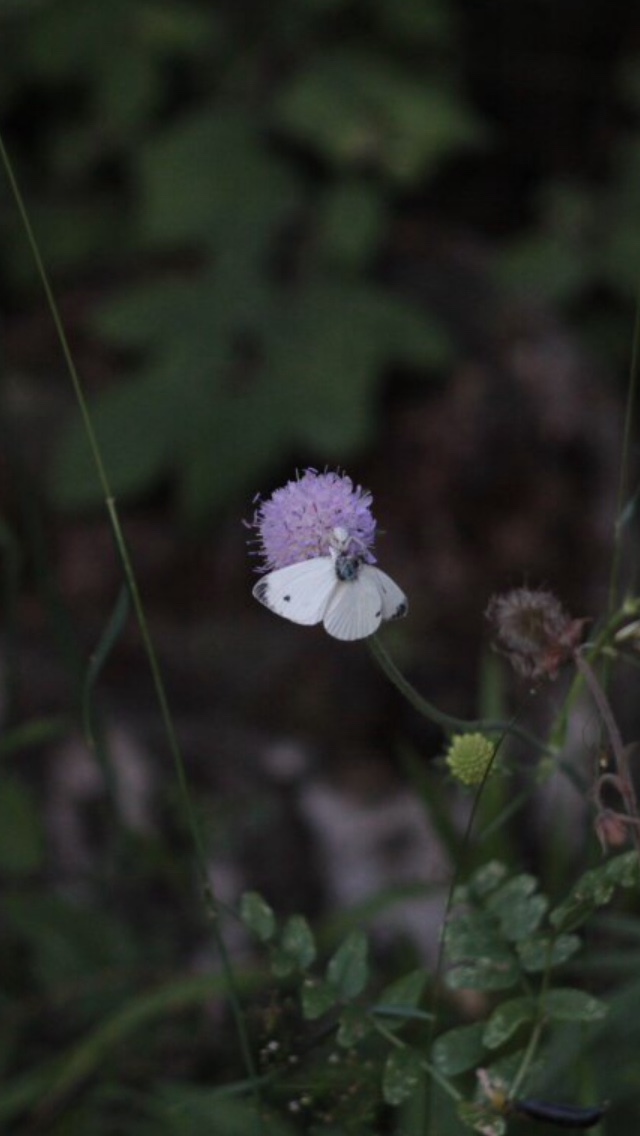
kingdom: Animalia
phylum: Arthropoda
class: Insecta
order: Lepidoptera
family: Pieridae
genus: Pieris
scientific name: Pieris napi
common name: Green-veined white
